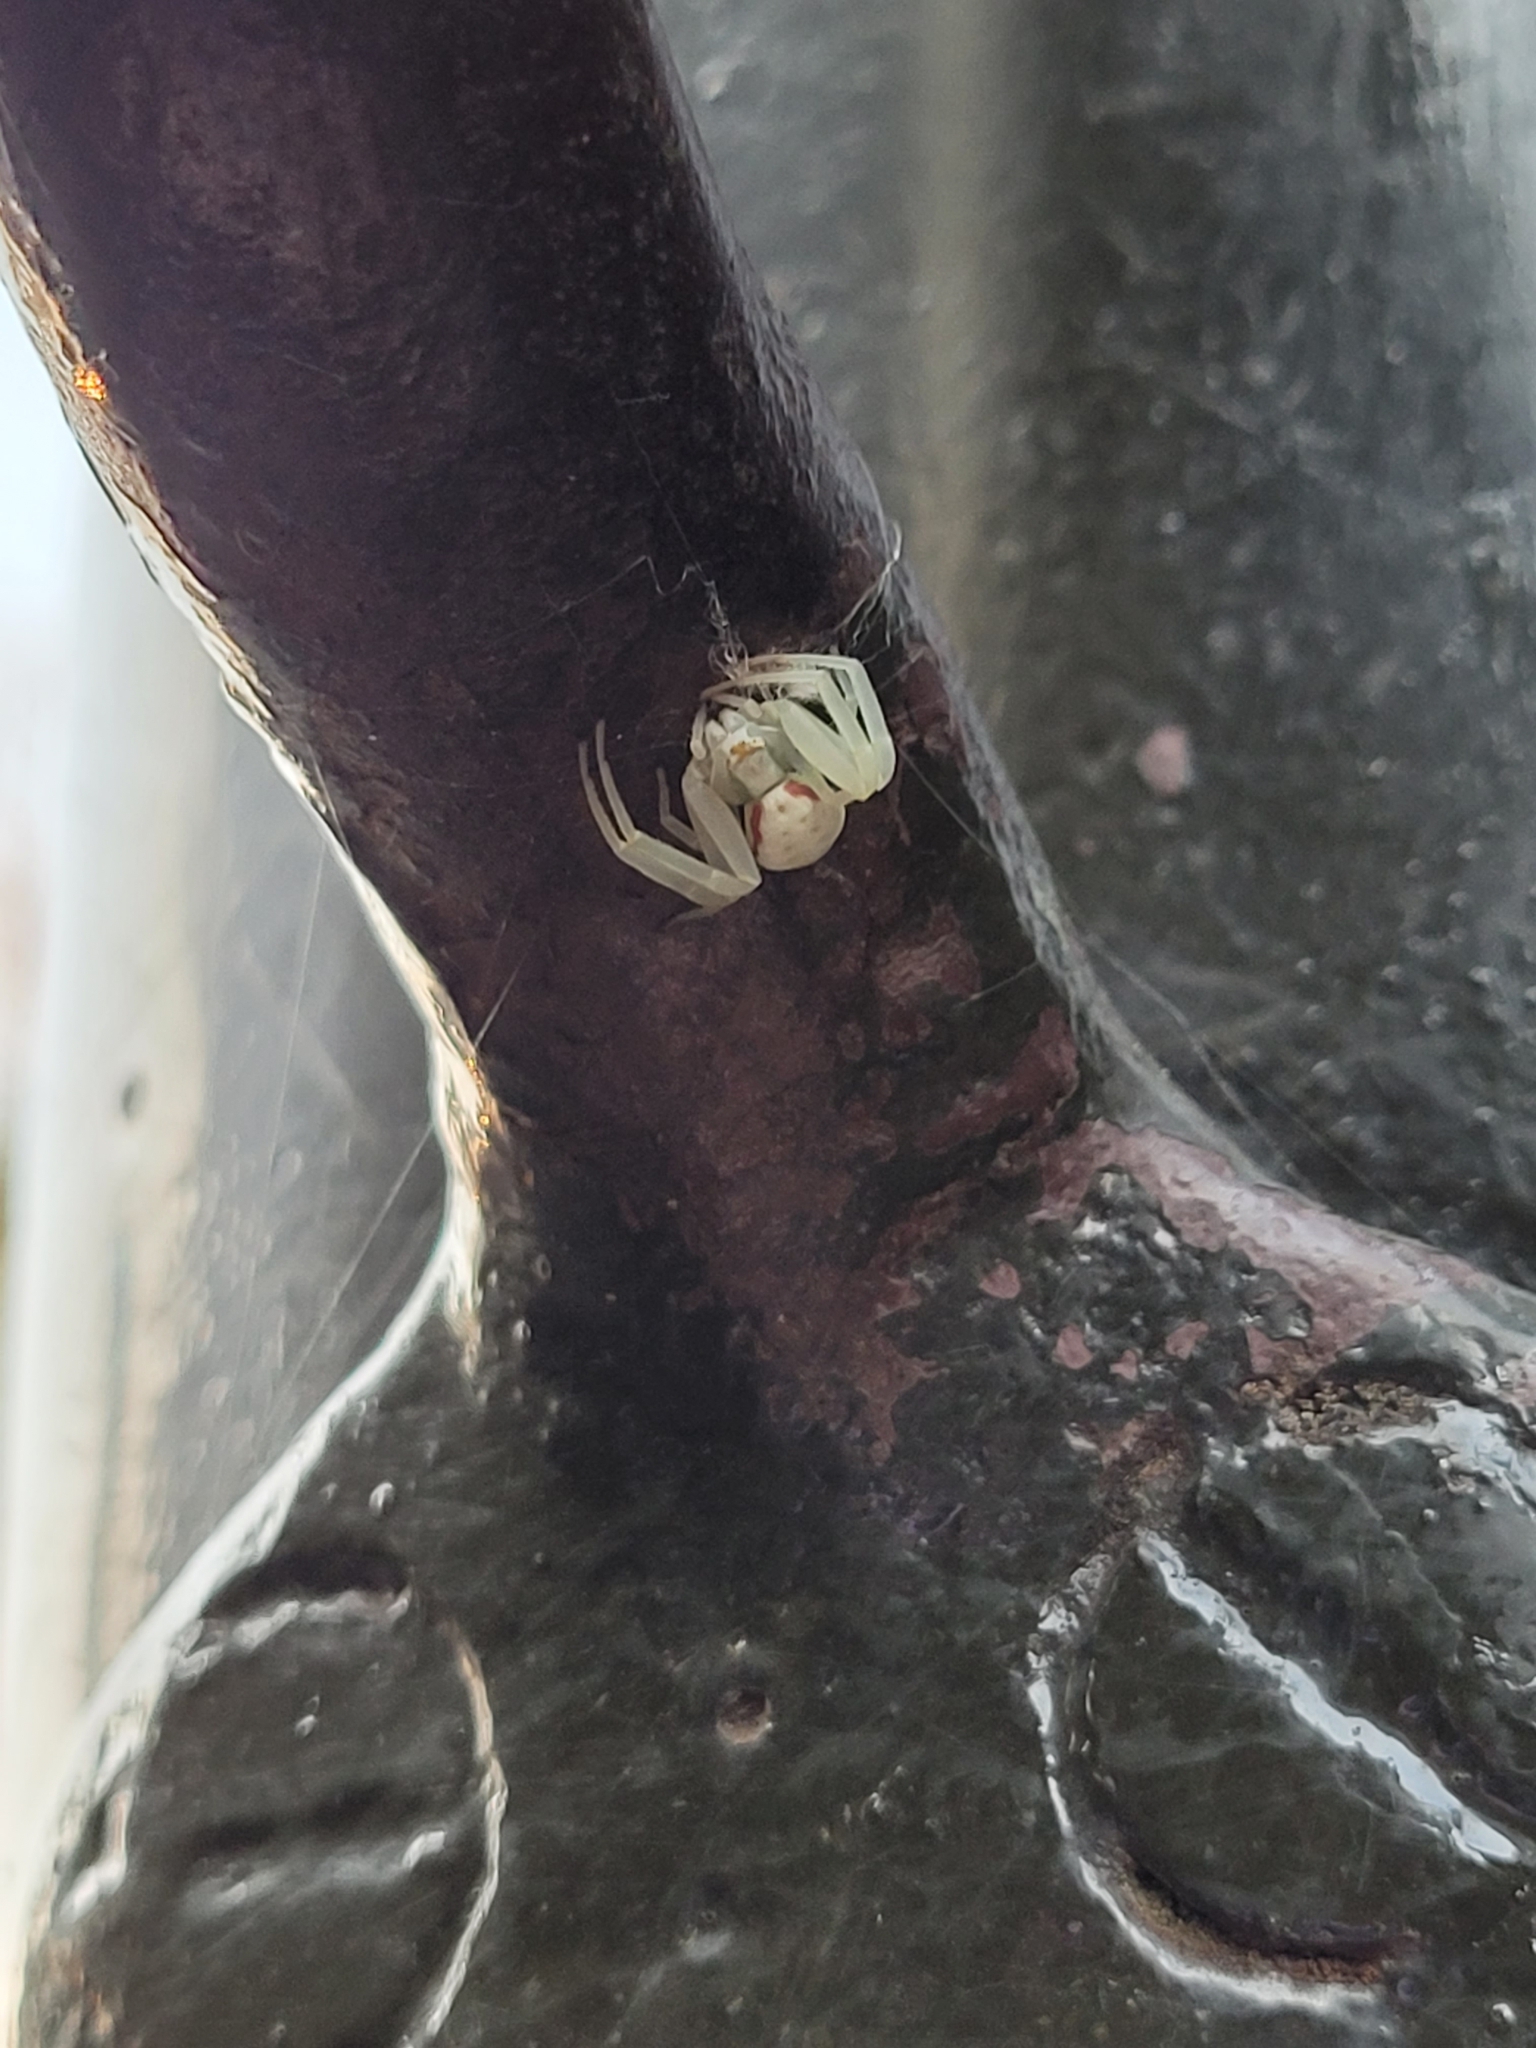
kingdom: Animalia
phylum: Arthropoda
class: Arachnida
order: Araneae
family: Thomisidae
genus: Misumena
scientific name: Misumena vatia
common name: Goldenrod crab spider
